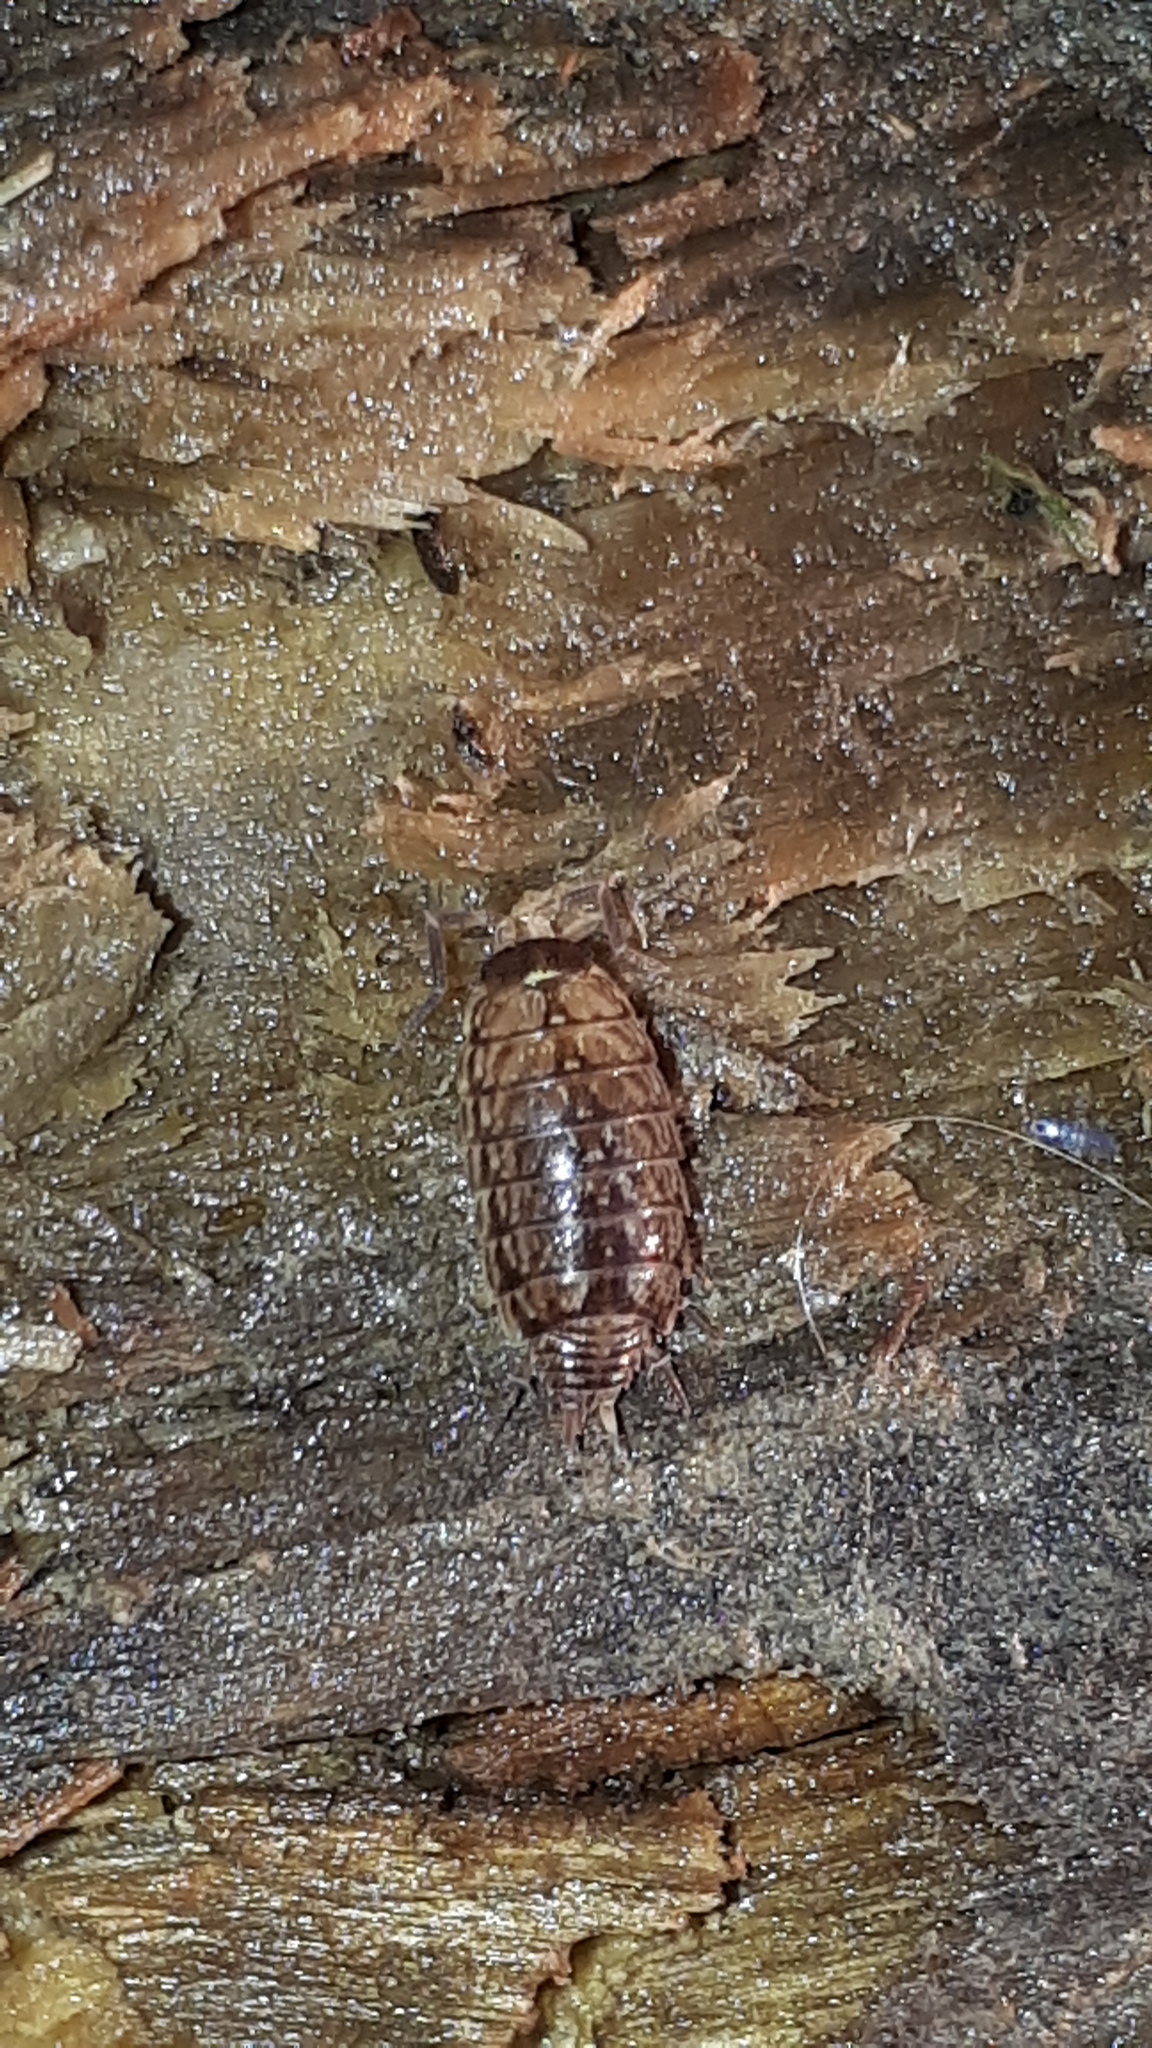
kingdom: Animalia
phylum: Arthropoda
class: Malacostraca
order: Isopoda
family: Philosciidae
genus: Philoscia
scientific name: Philoscia muscorum
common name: Common striped woodlouse
